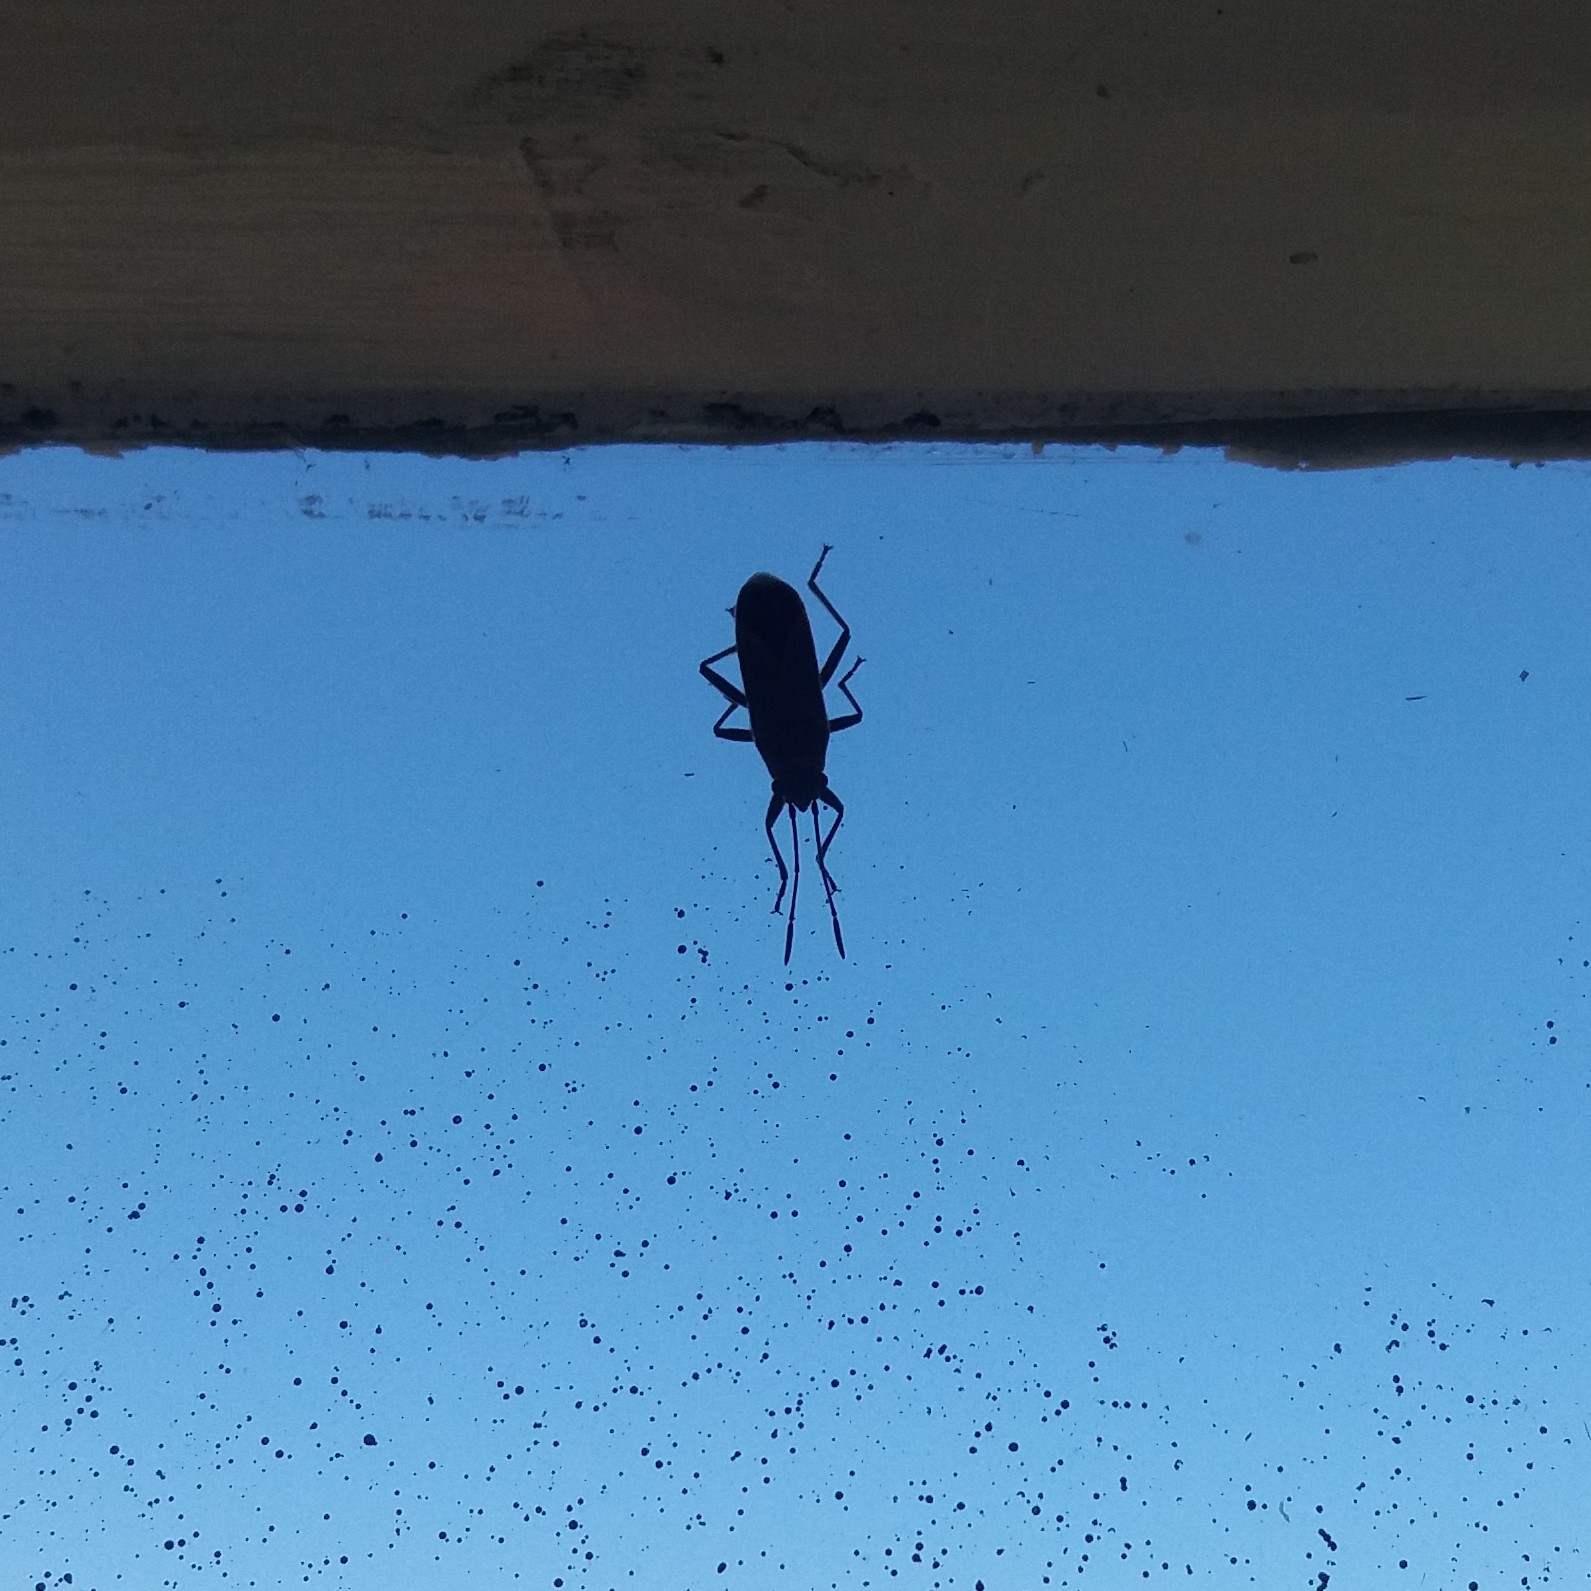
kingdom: Animalia
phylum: Arthropoda
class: Insecta
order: Hemiptera
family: Lygaeidae
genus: Arocatus
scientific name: Arocatus rusticus
